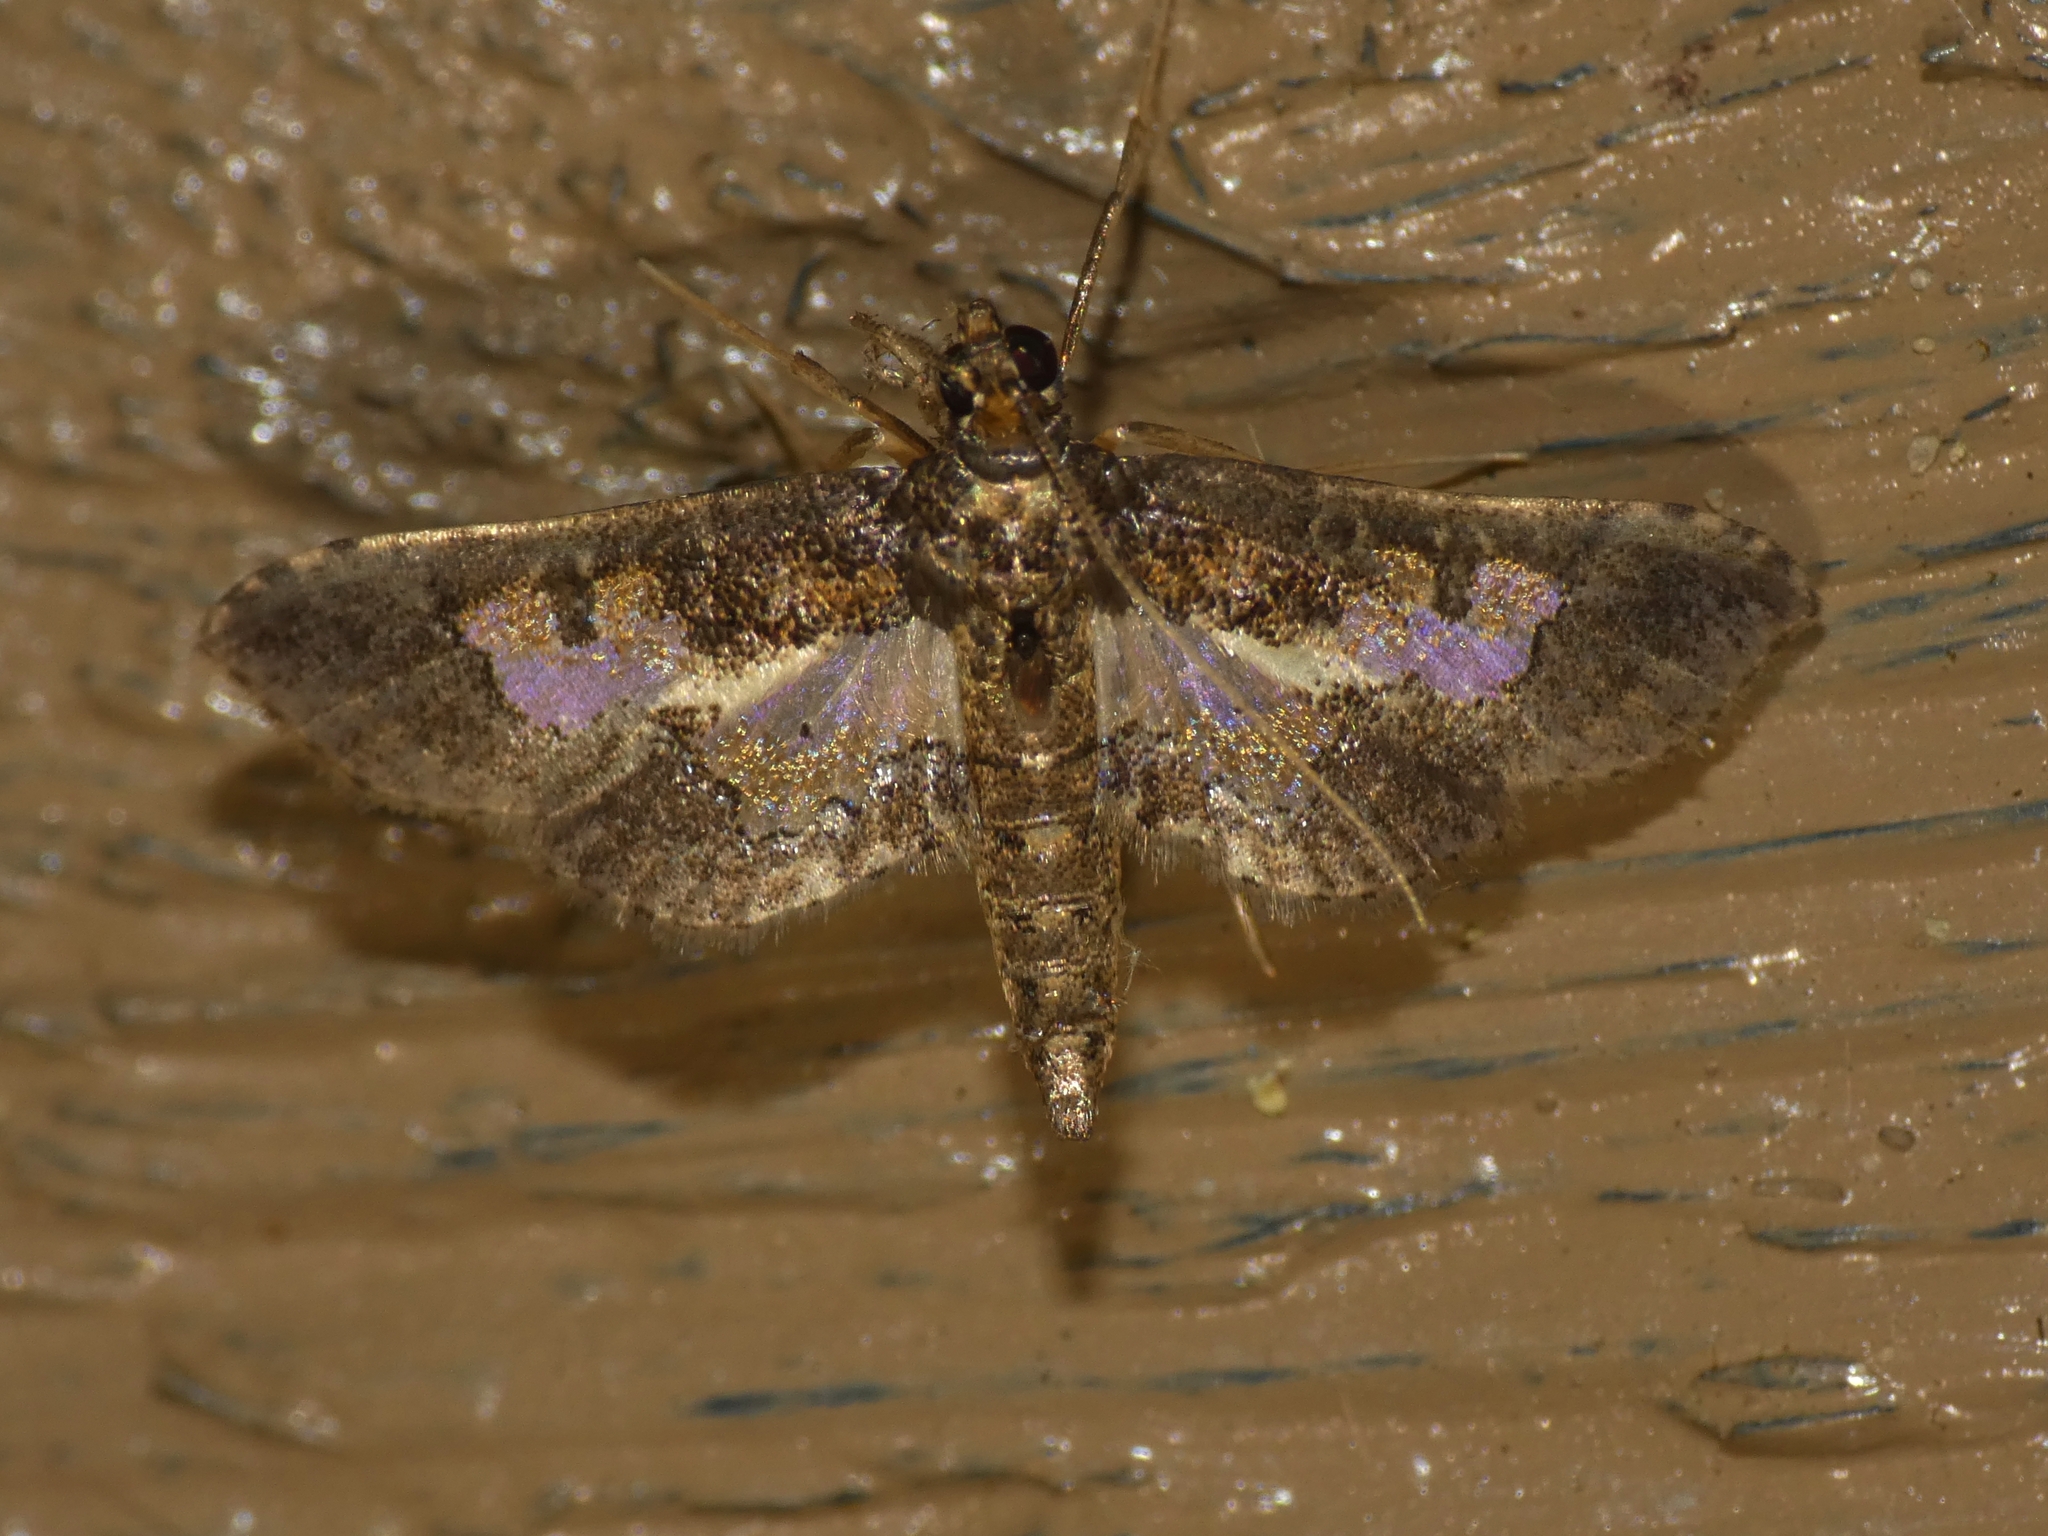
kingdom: Animalia
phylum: Arthropoda
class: Insecta
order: Lepidoptera
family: Crambidae
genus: Hydriris
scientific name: Hydriris ornatalis
